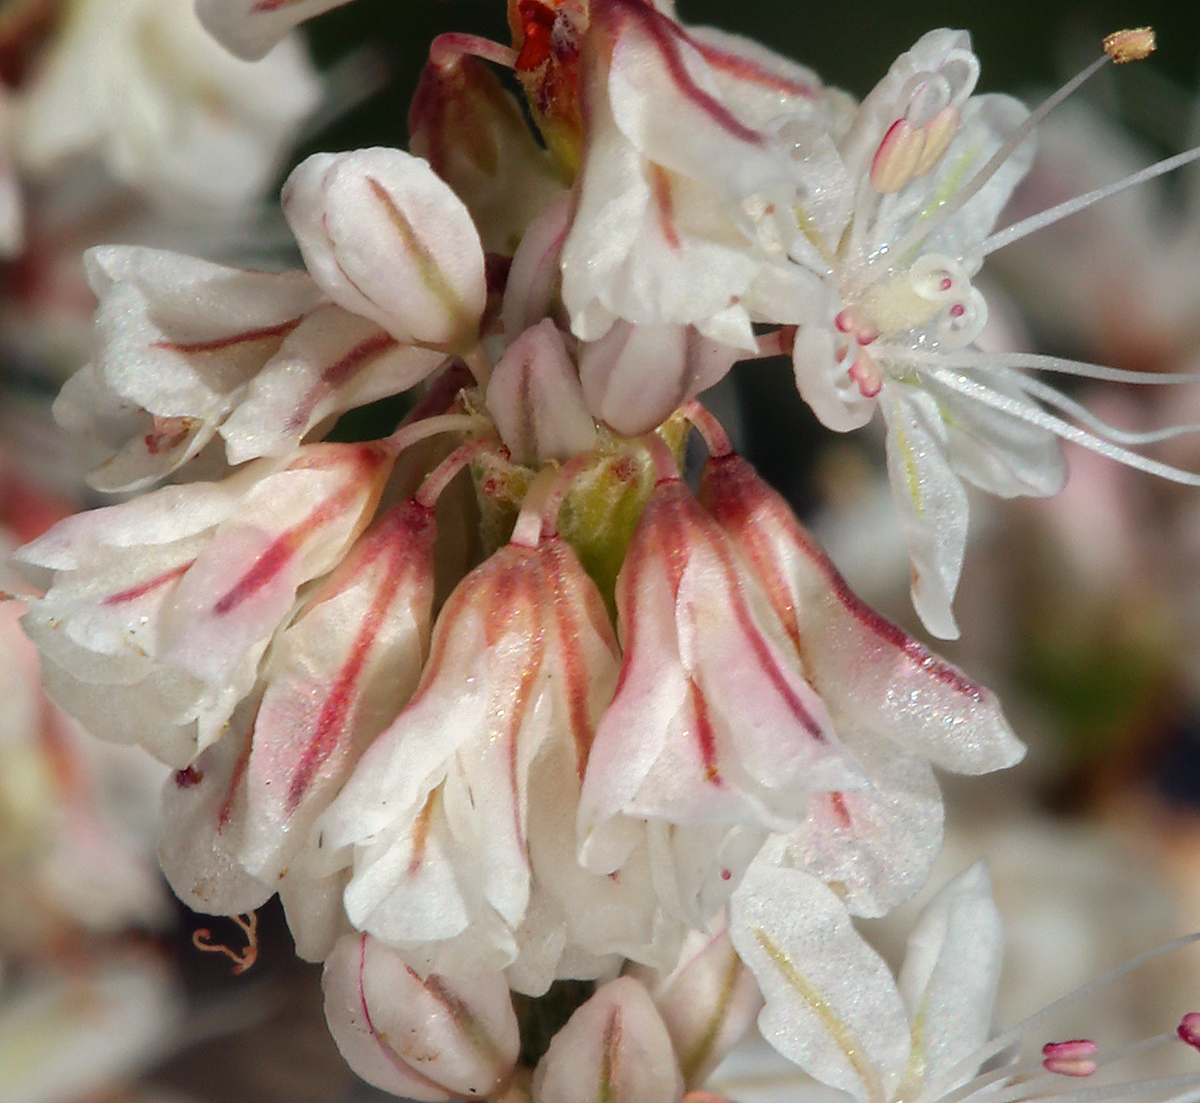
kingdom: Plantae
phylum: Tracheophyta
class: Magnoliopsida
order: Caryophyllales
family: Polygonaceae
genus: Eriogonum
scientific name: Eriogonum wrightii
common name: Bastard-sage
